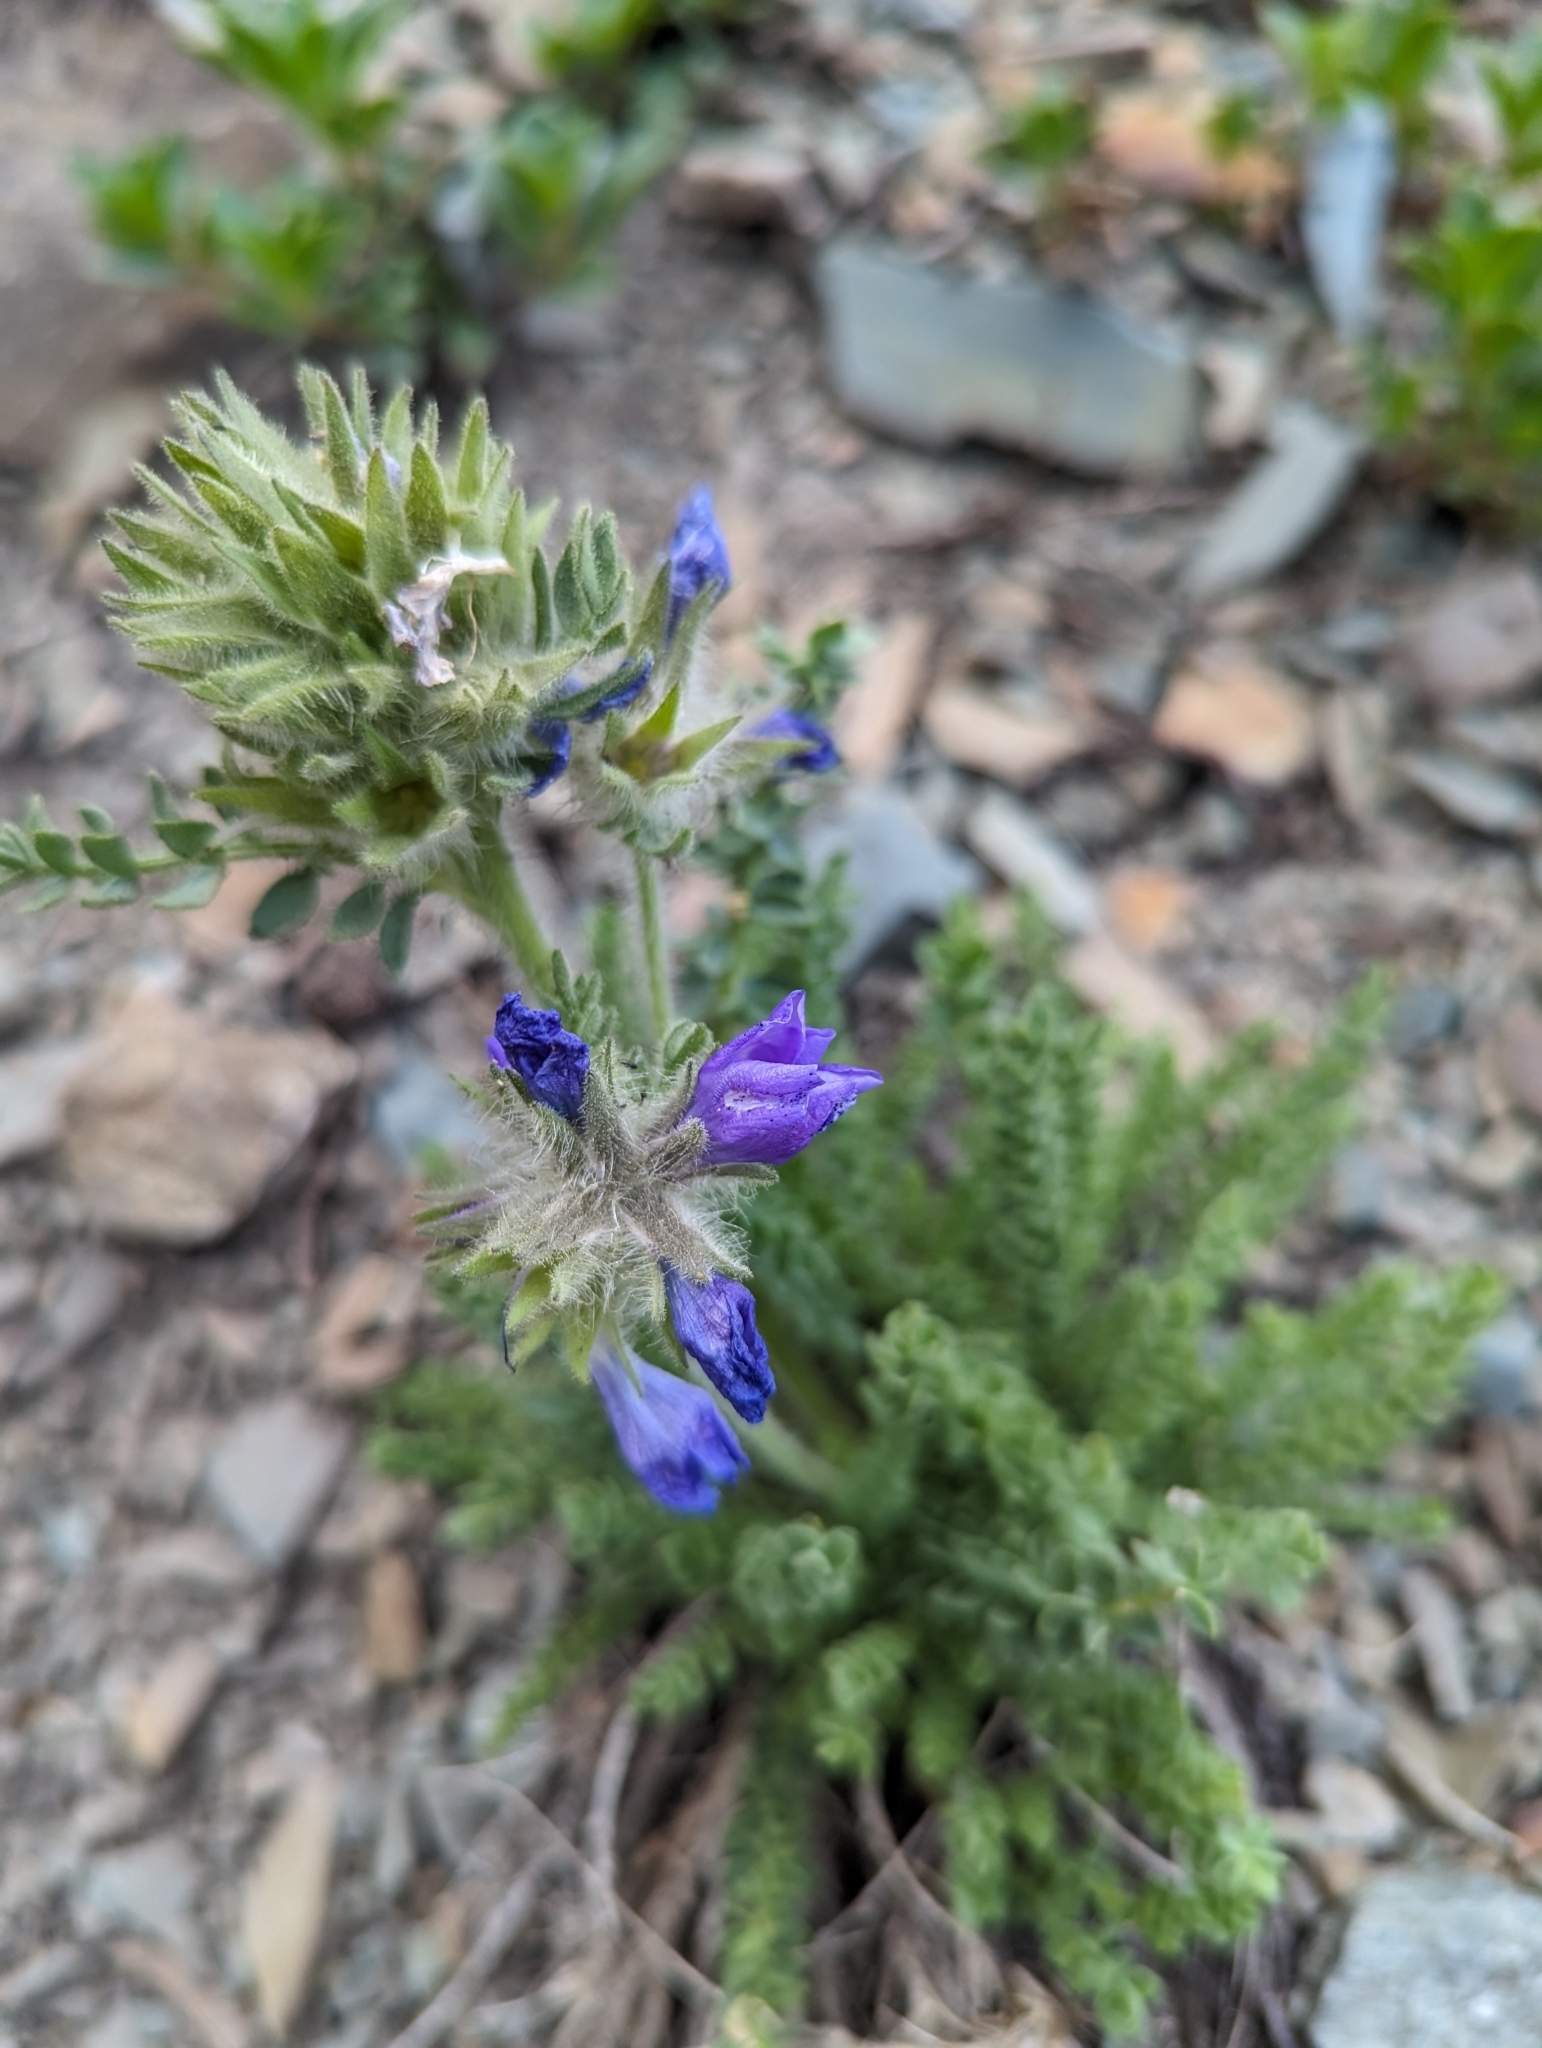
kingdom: Plantae
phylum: Tracheophyta
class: Magnoliopsida
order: Ericales
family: Polemoniaceae
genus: Polemonium
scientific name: Polemonium viscosum
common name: Skunk jacob's-ladder
